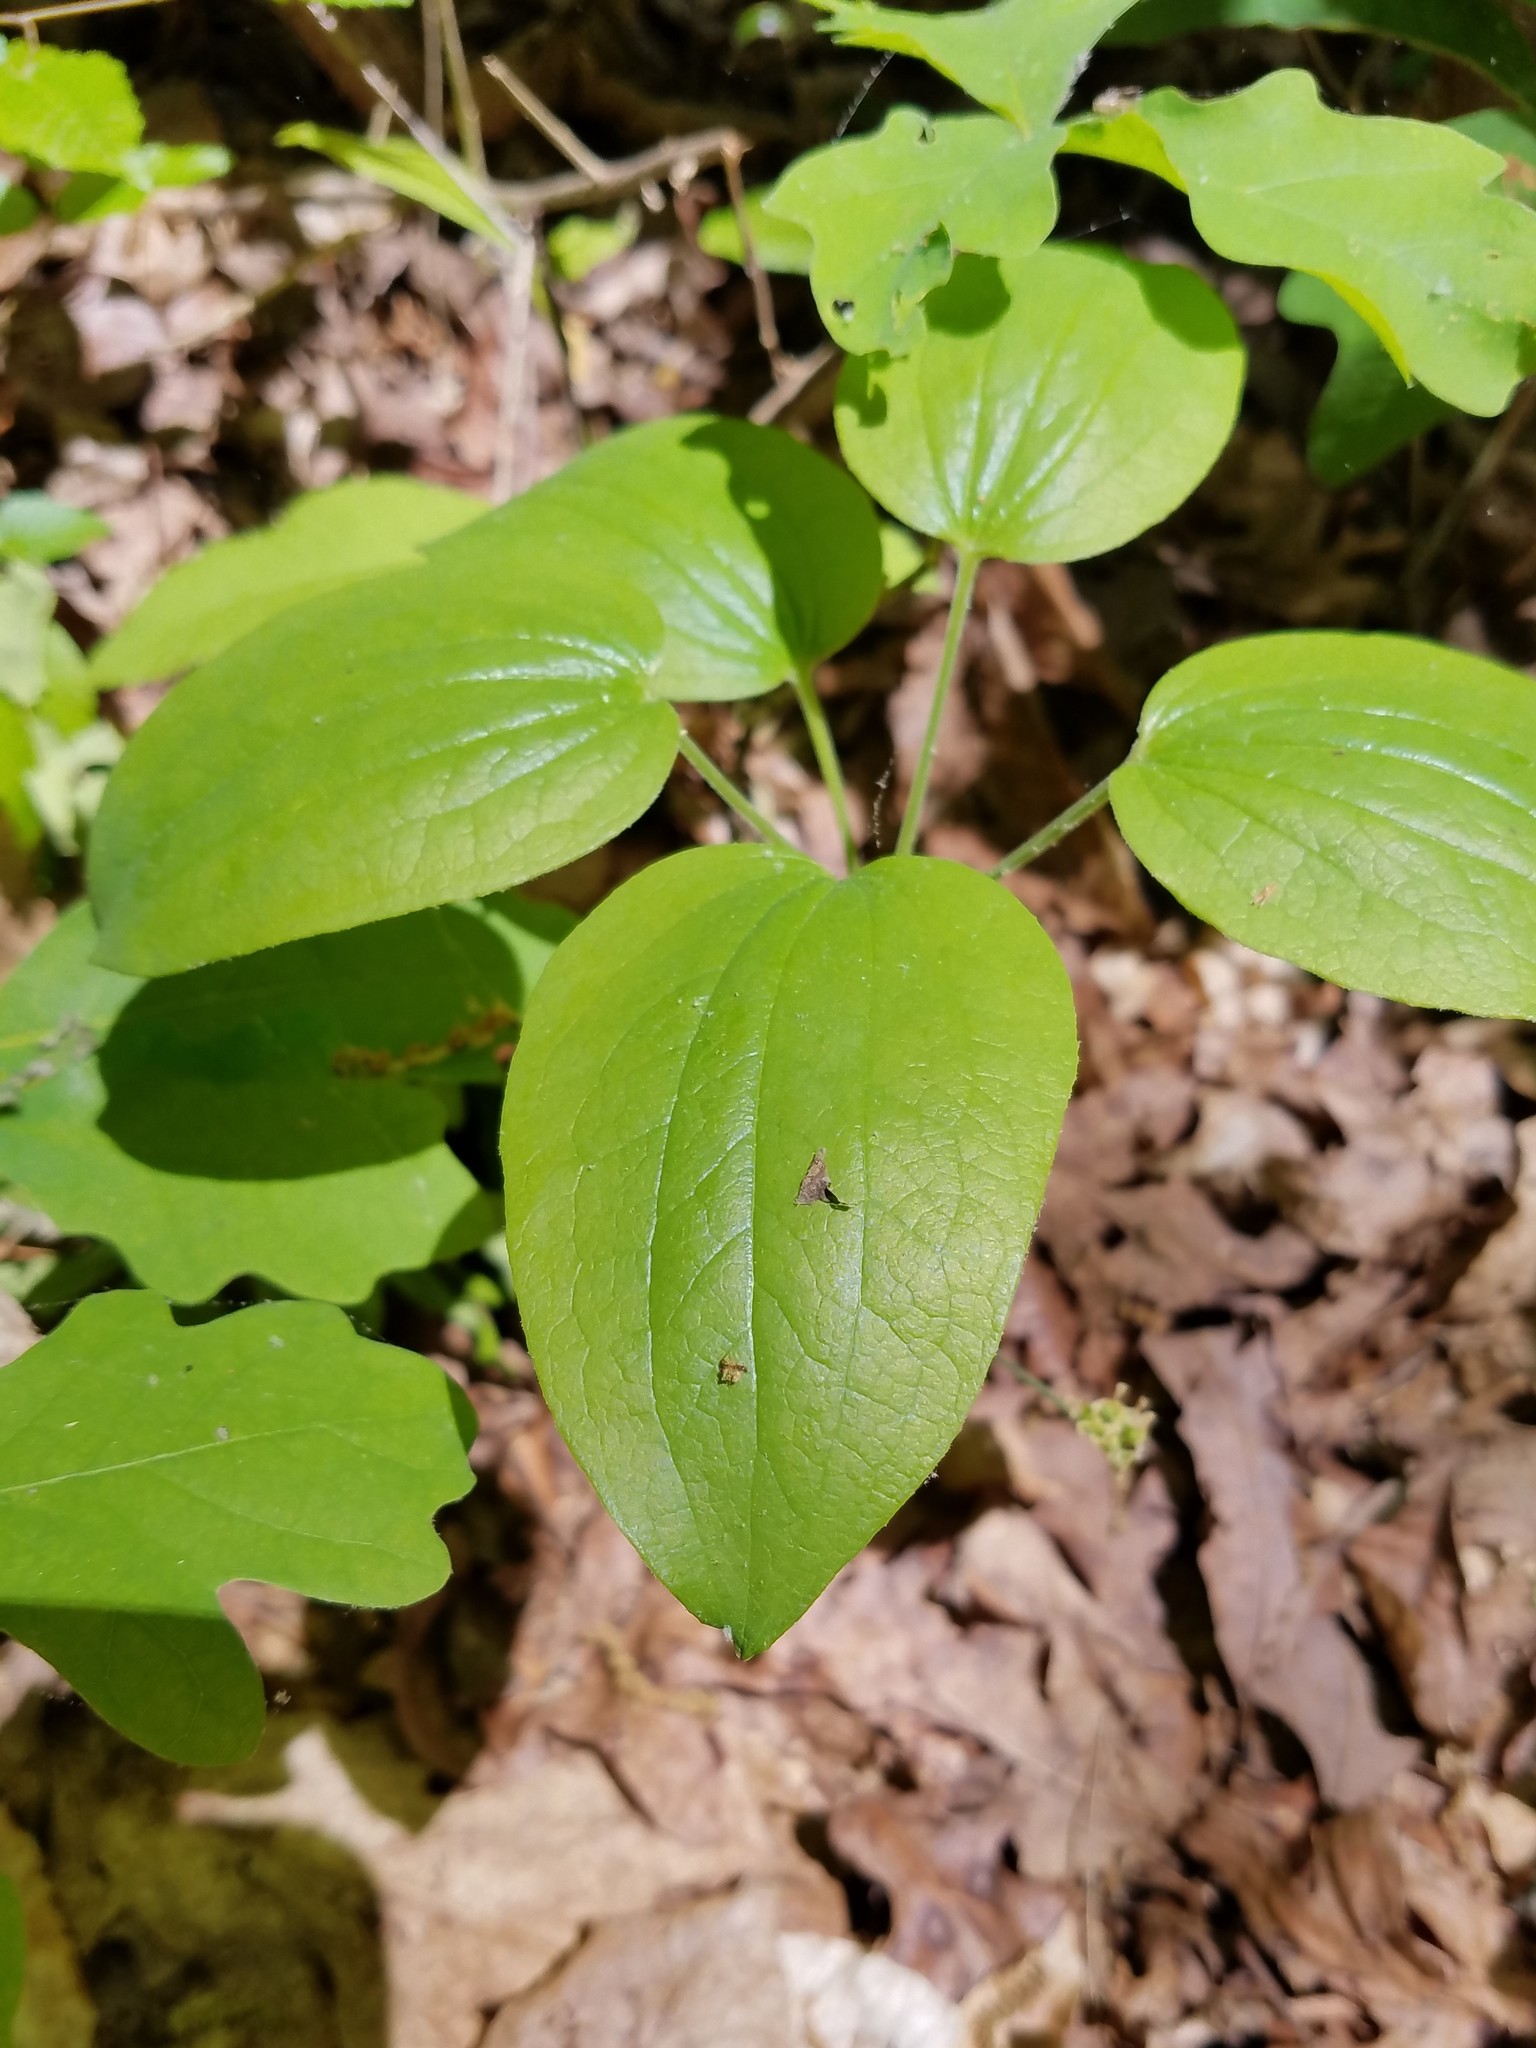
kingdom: Plantae
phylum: Tracheophyta
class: Liliopsida
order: Liliales
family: Smilacaceae
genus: Smilax
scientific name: Smilax hugeri
